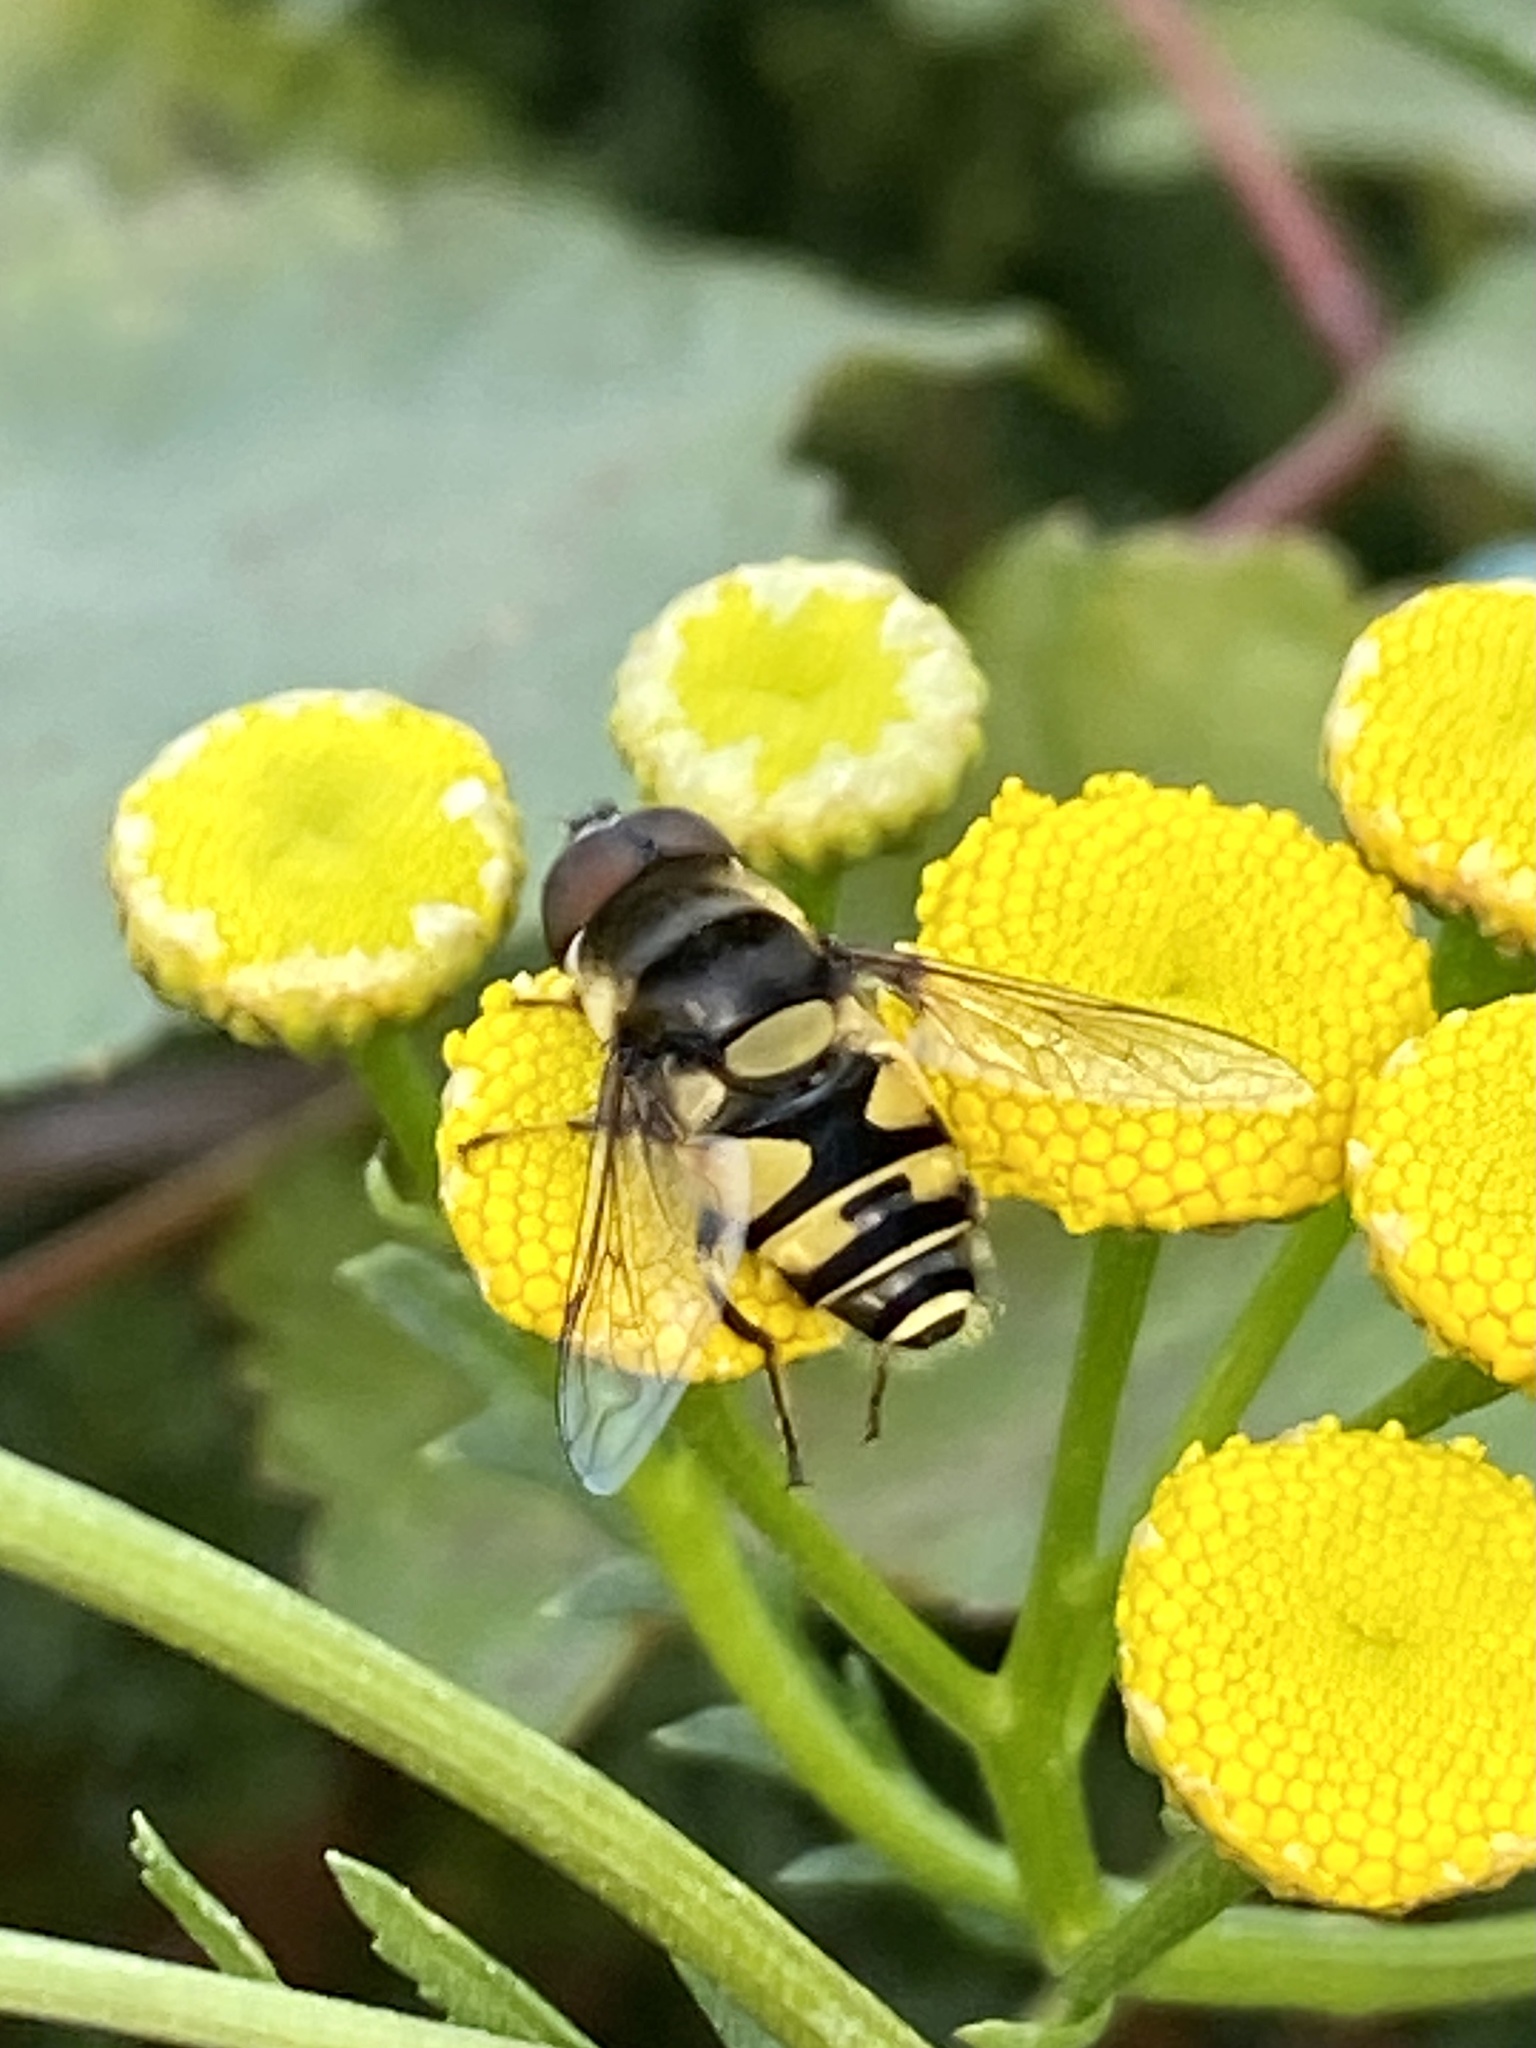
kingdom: Animalia
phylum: Arthropoda
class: Insecta
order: Diptera
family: Syrphidae
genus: Eristalis
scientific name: Eristalis transversa
